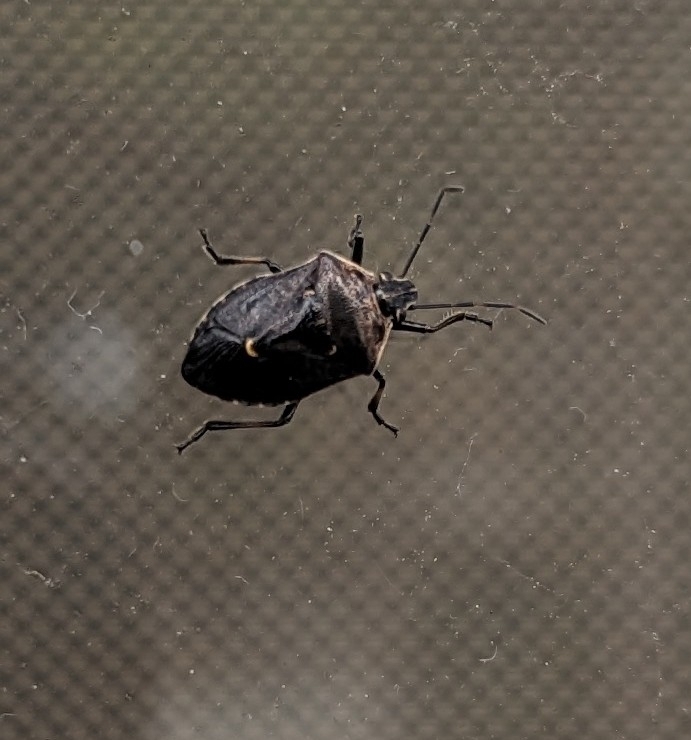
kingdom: Animalia
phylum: Arthropoda
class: Insecta
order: Hemiptera
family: Pentatomidae
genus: Cermatulus
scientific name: Cermatulus nasalis
